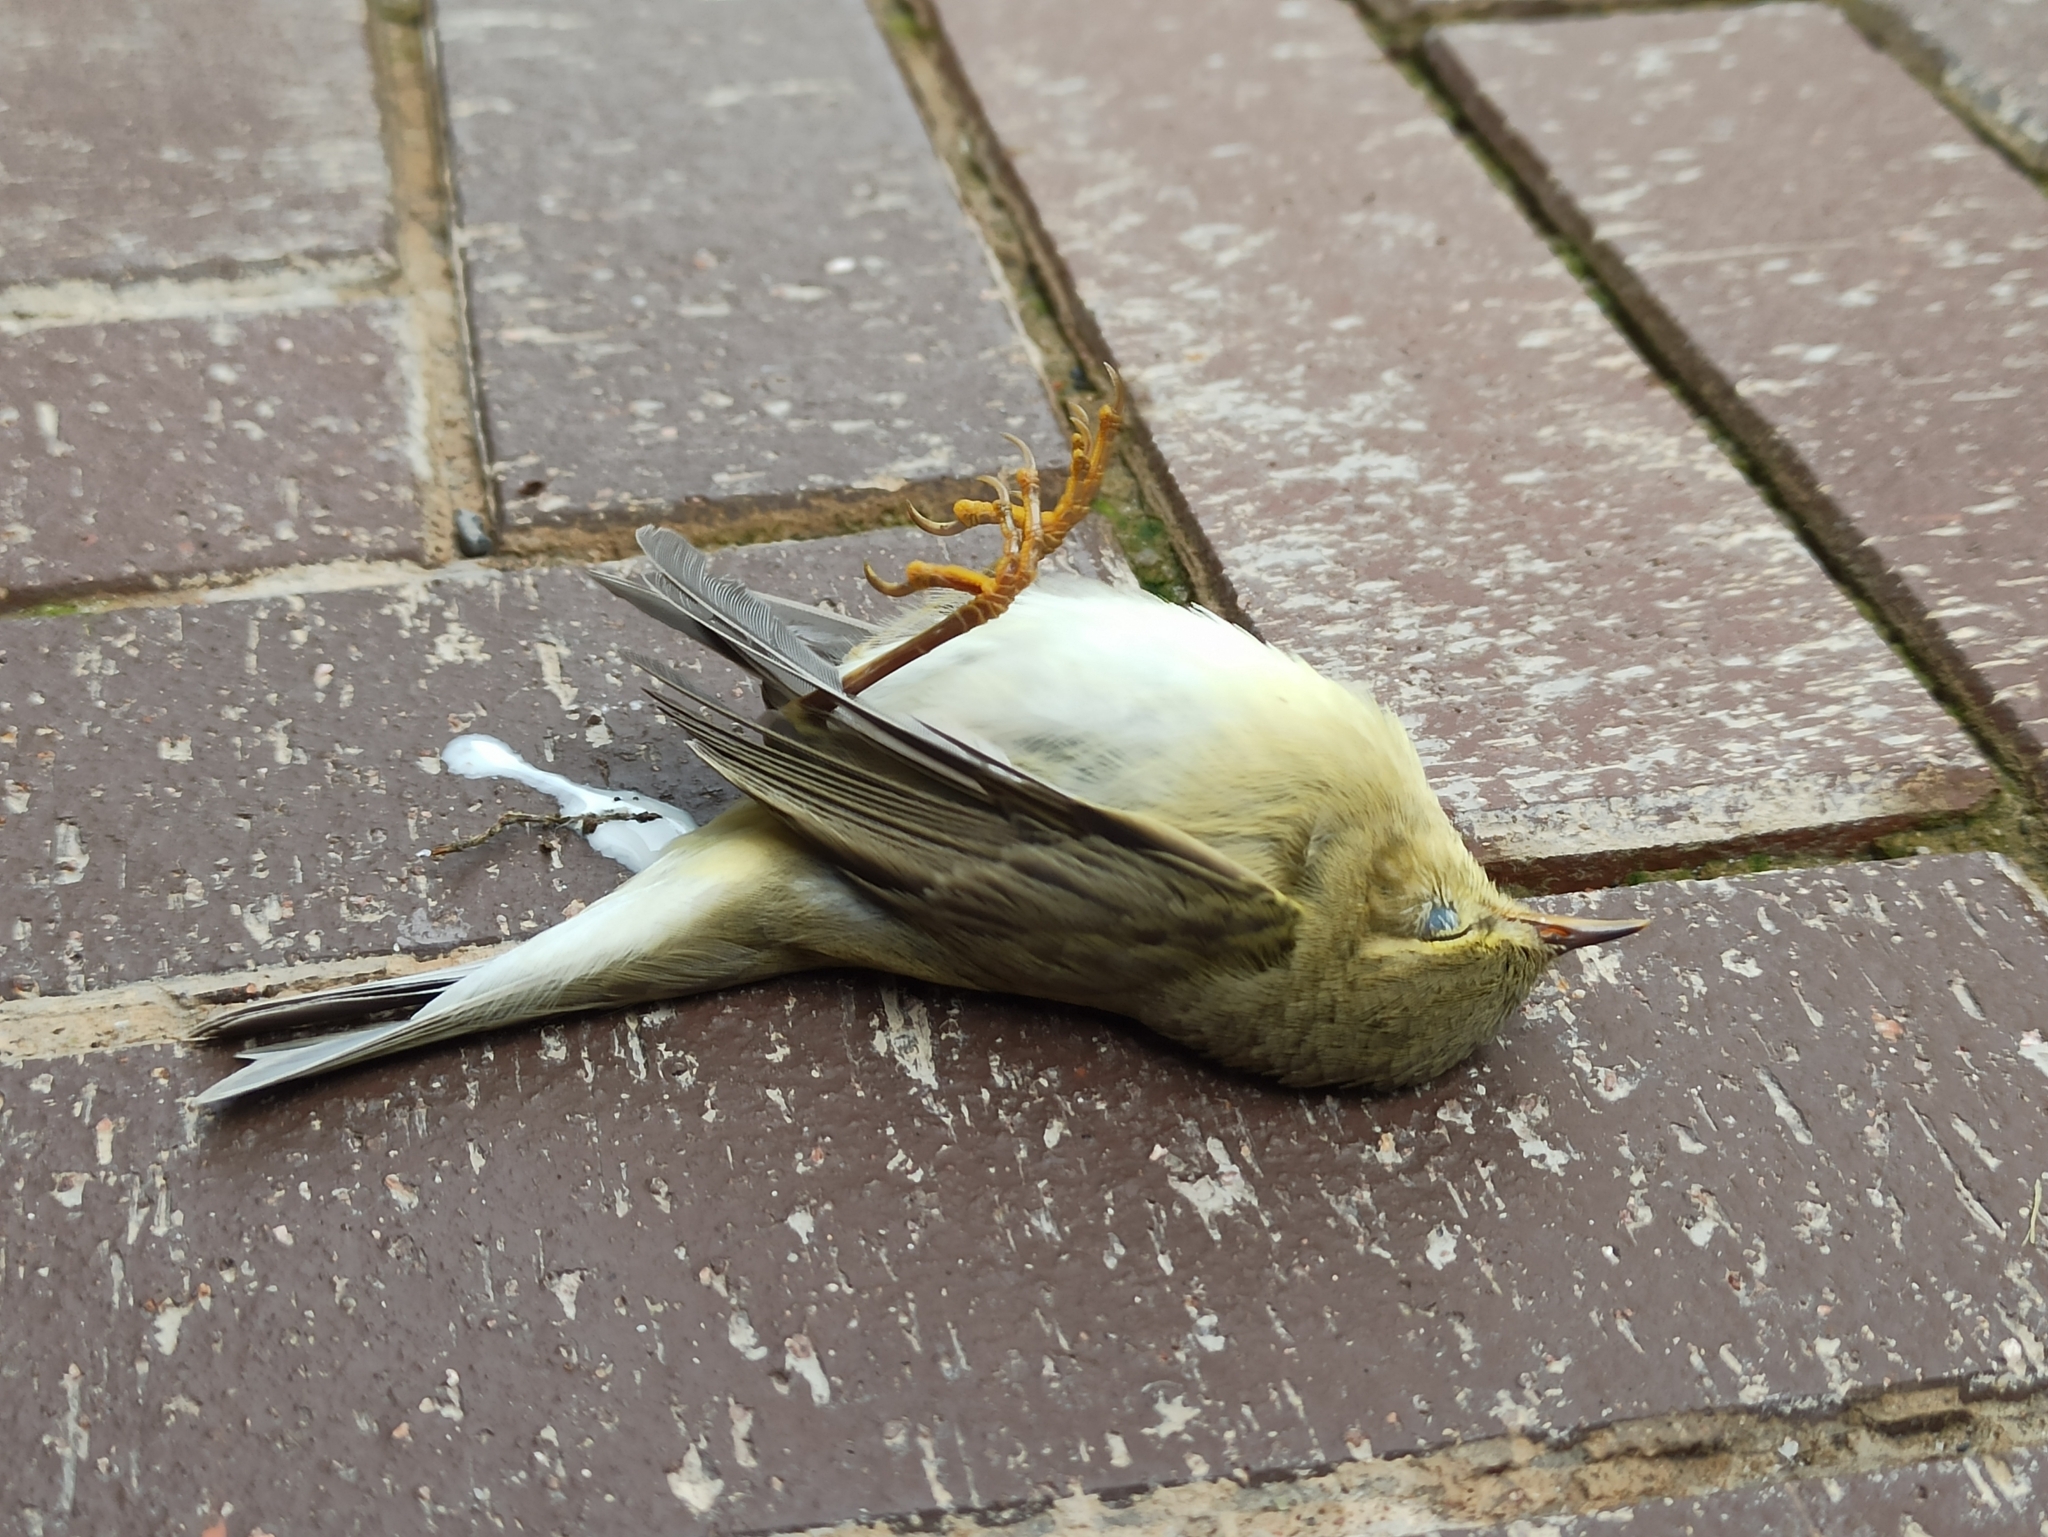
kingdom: Animalia
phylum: Chordata
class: Aves
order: Passeriformes
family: Phylloscopidae
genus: Phylloscopus
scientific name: Phylloscopus trochilus
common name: Willow warbler
